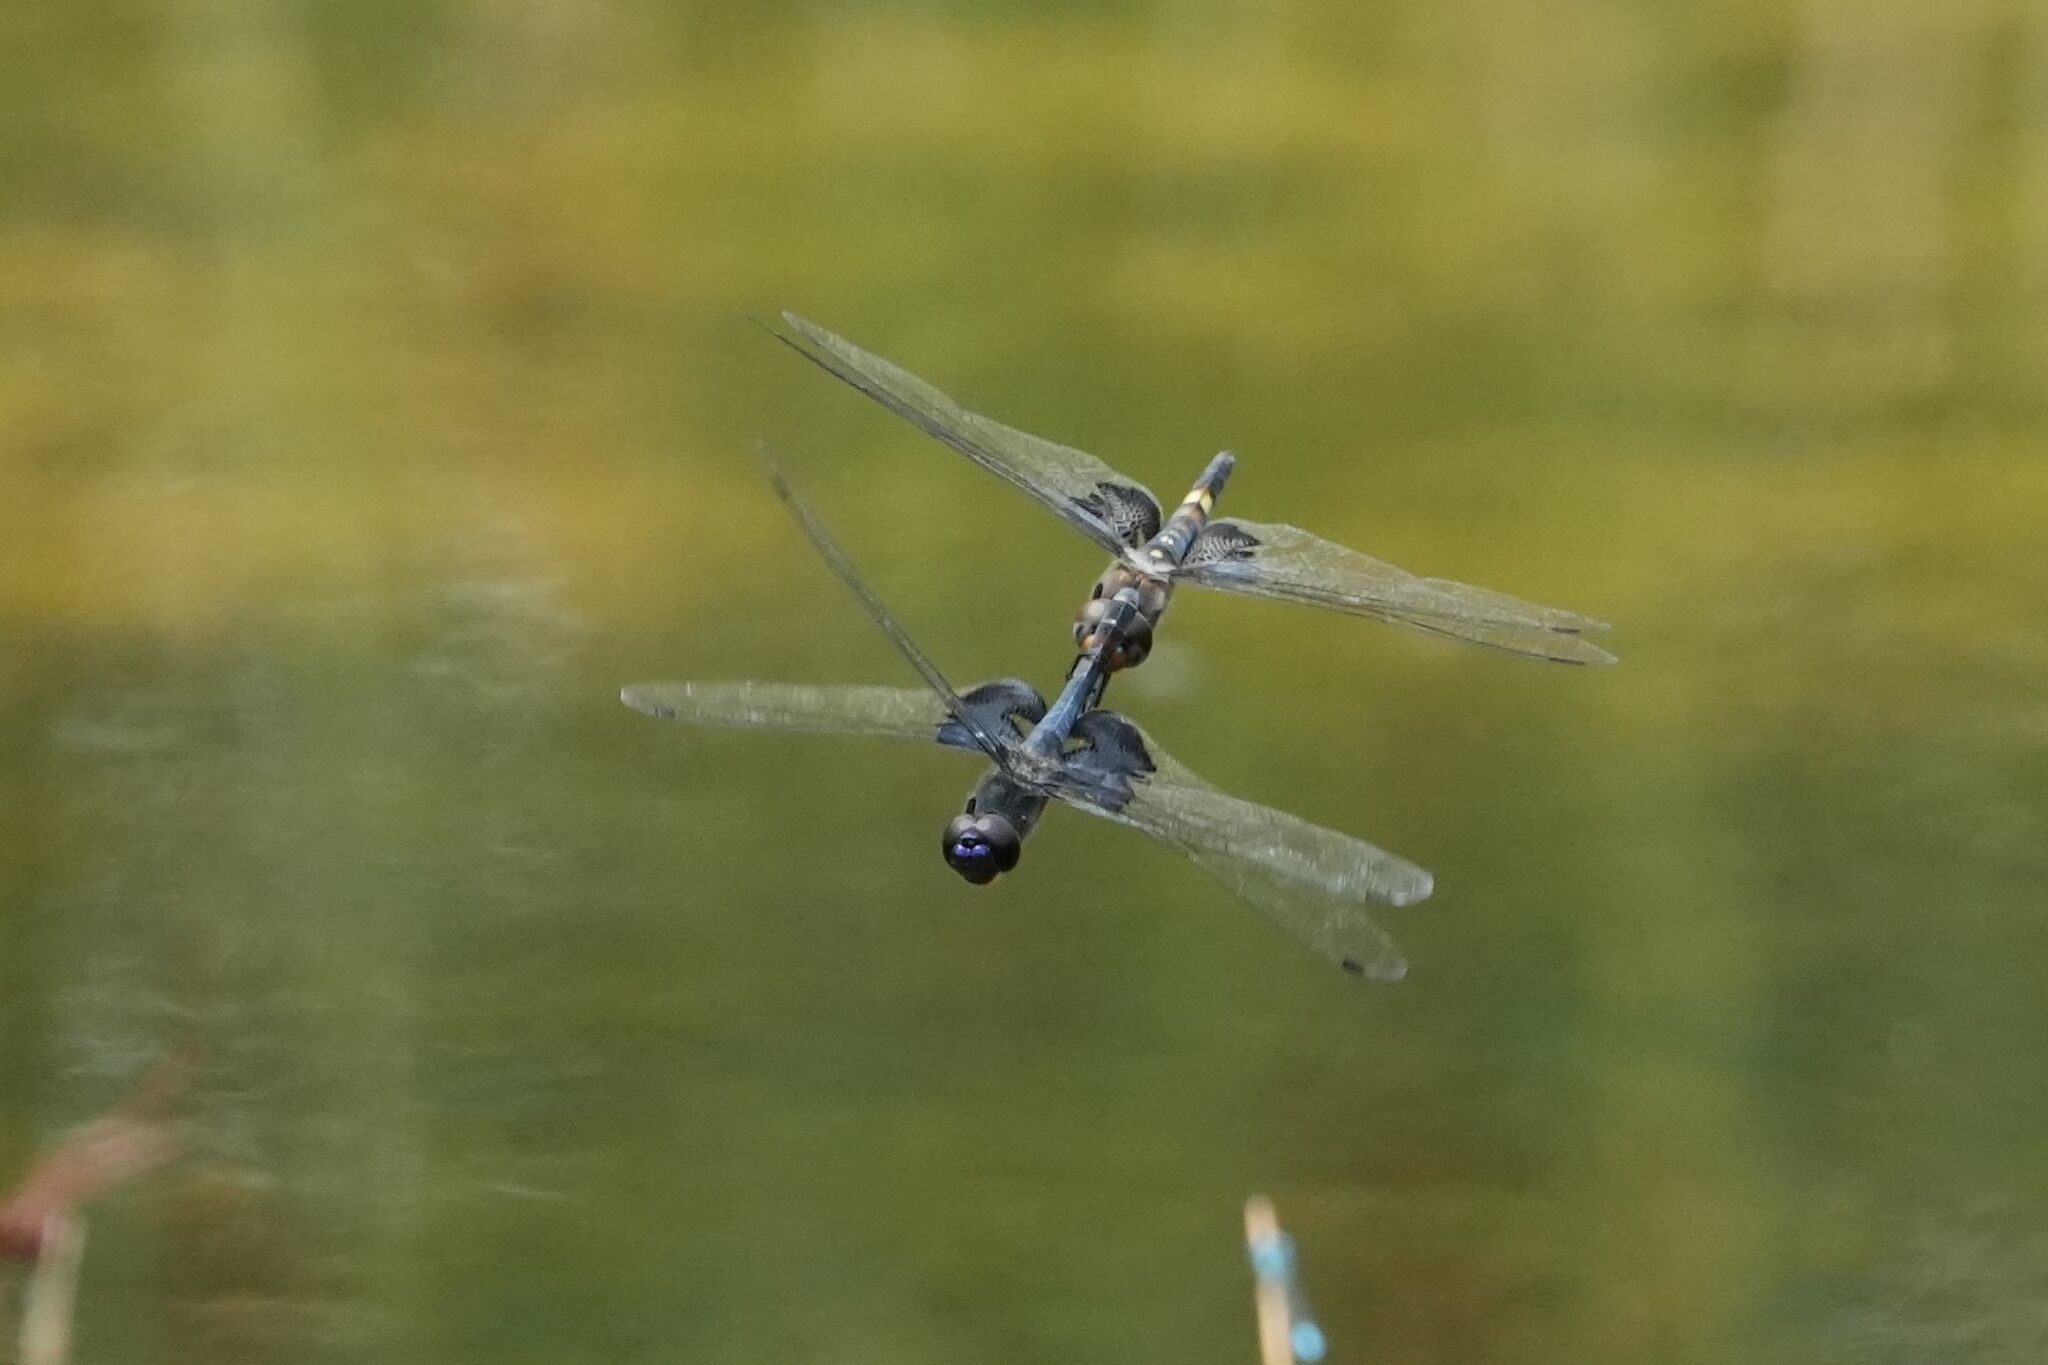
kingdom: Animalia
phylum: Arthropoda
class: Insecta
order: Odonata
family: Libellulidae
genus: Tramea
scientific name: Tramea lacerata
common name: Black saddlebags
